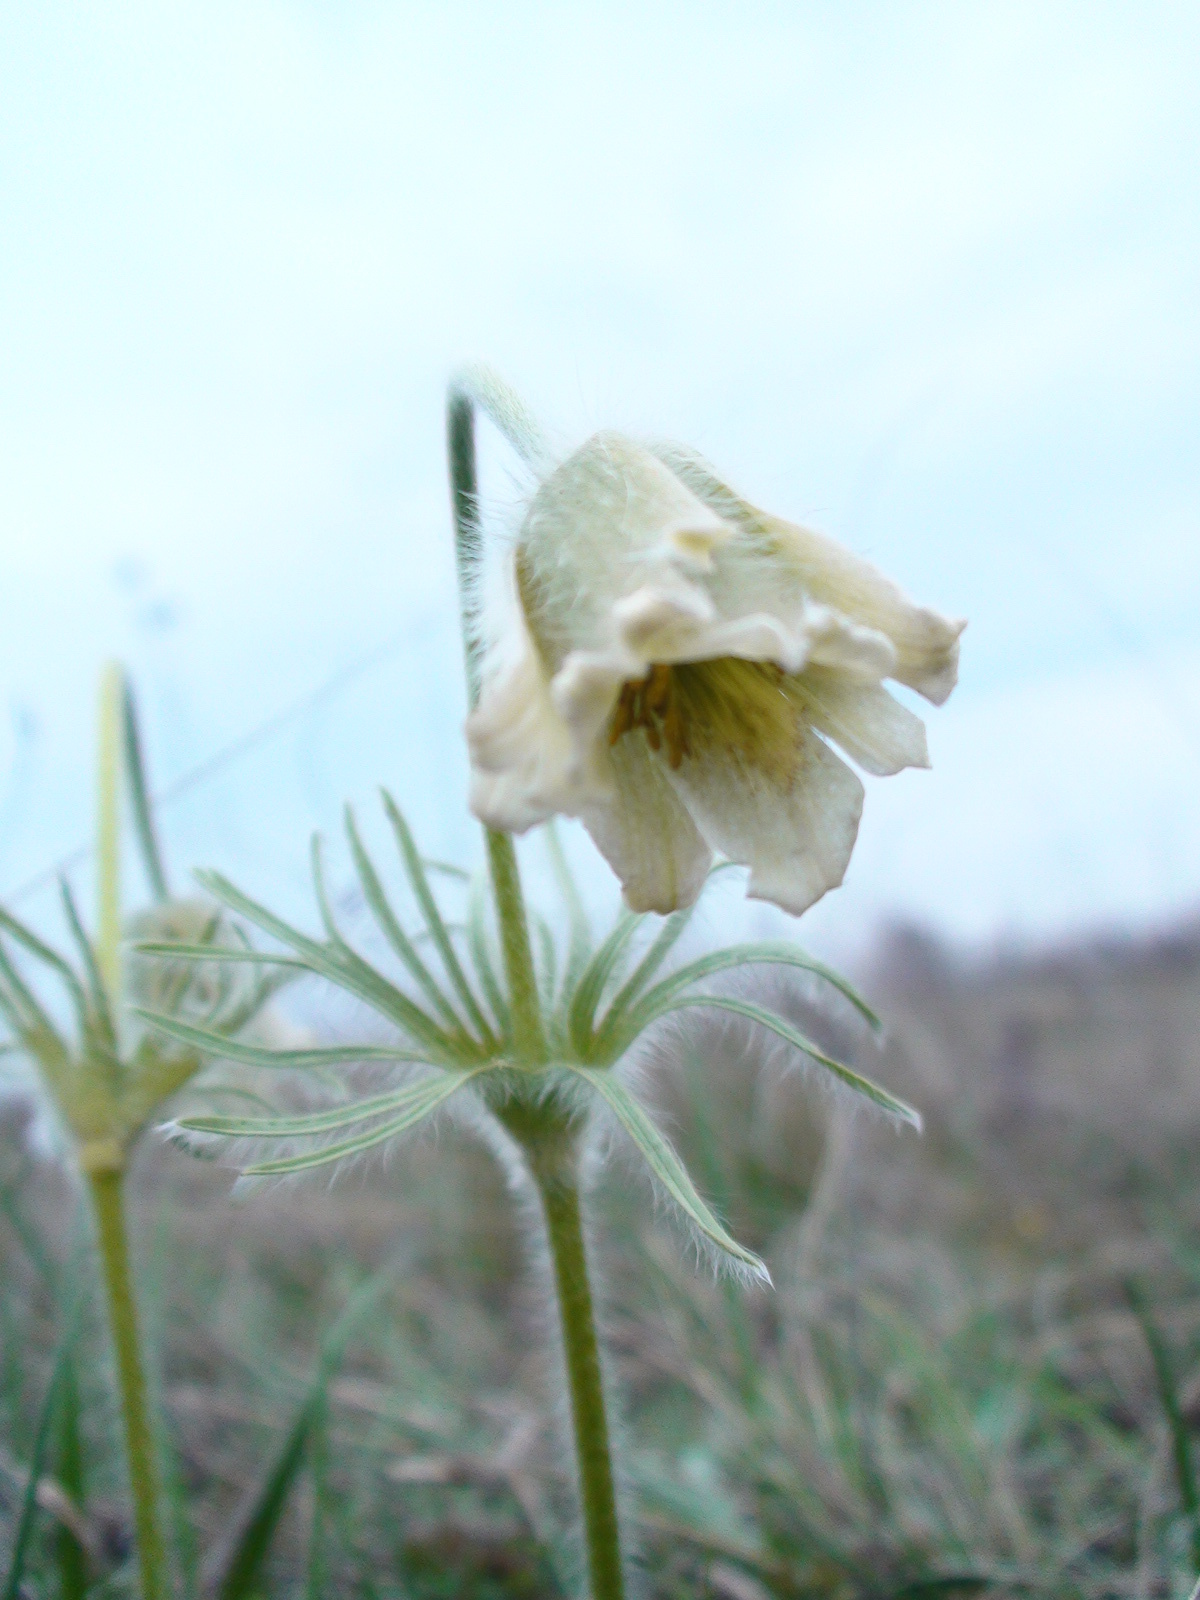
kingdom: Plantae
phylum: Tracheophyta
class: Magnoliopsida
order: Ranunculales
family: Ranunculaceae
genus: Pulsatilla
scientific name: Pulsatilla pratensis
